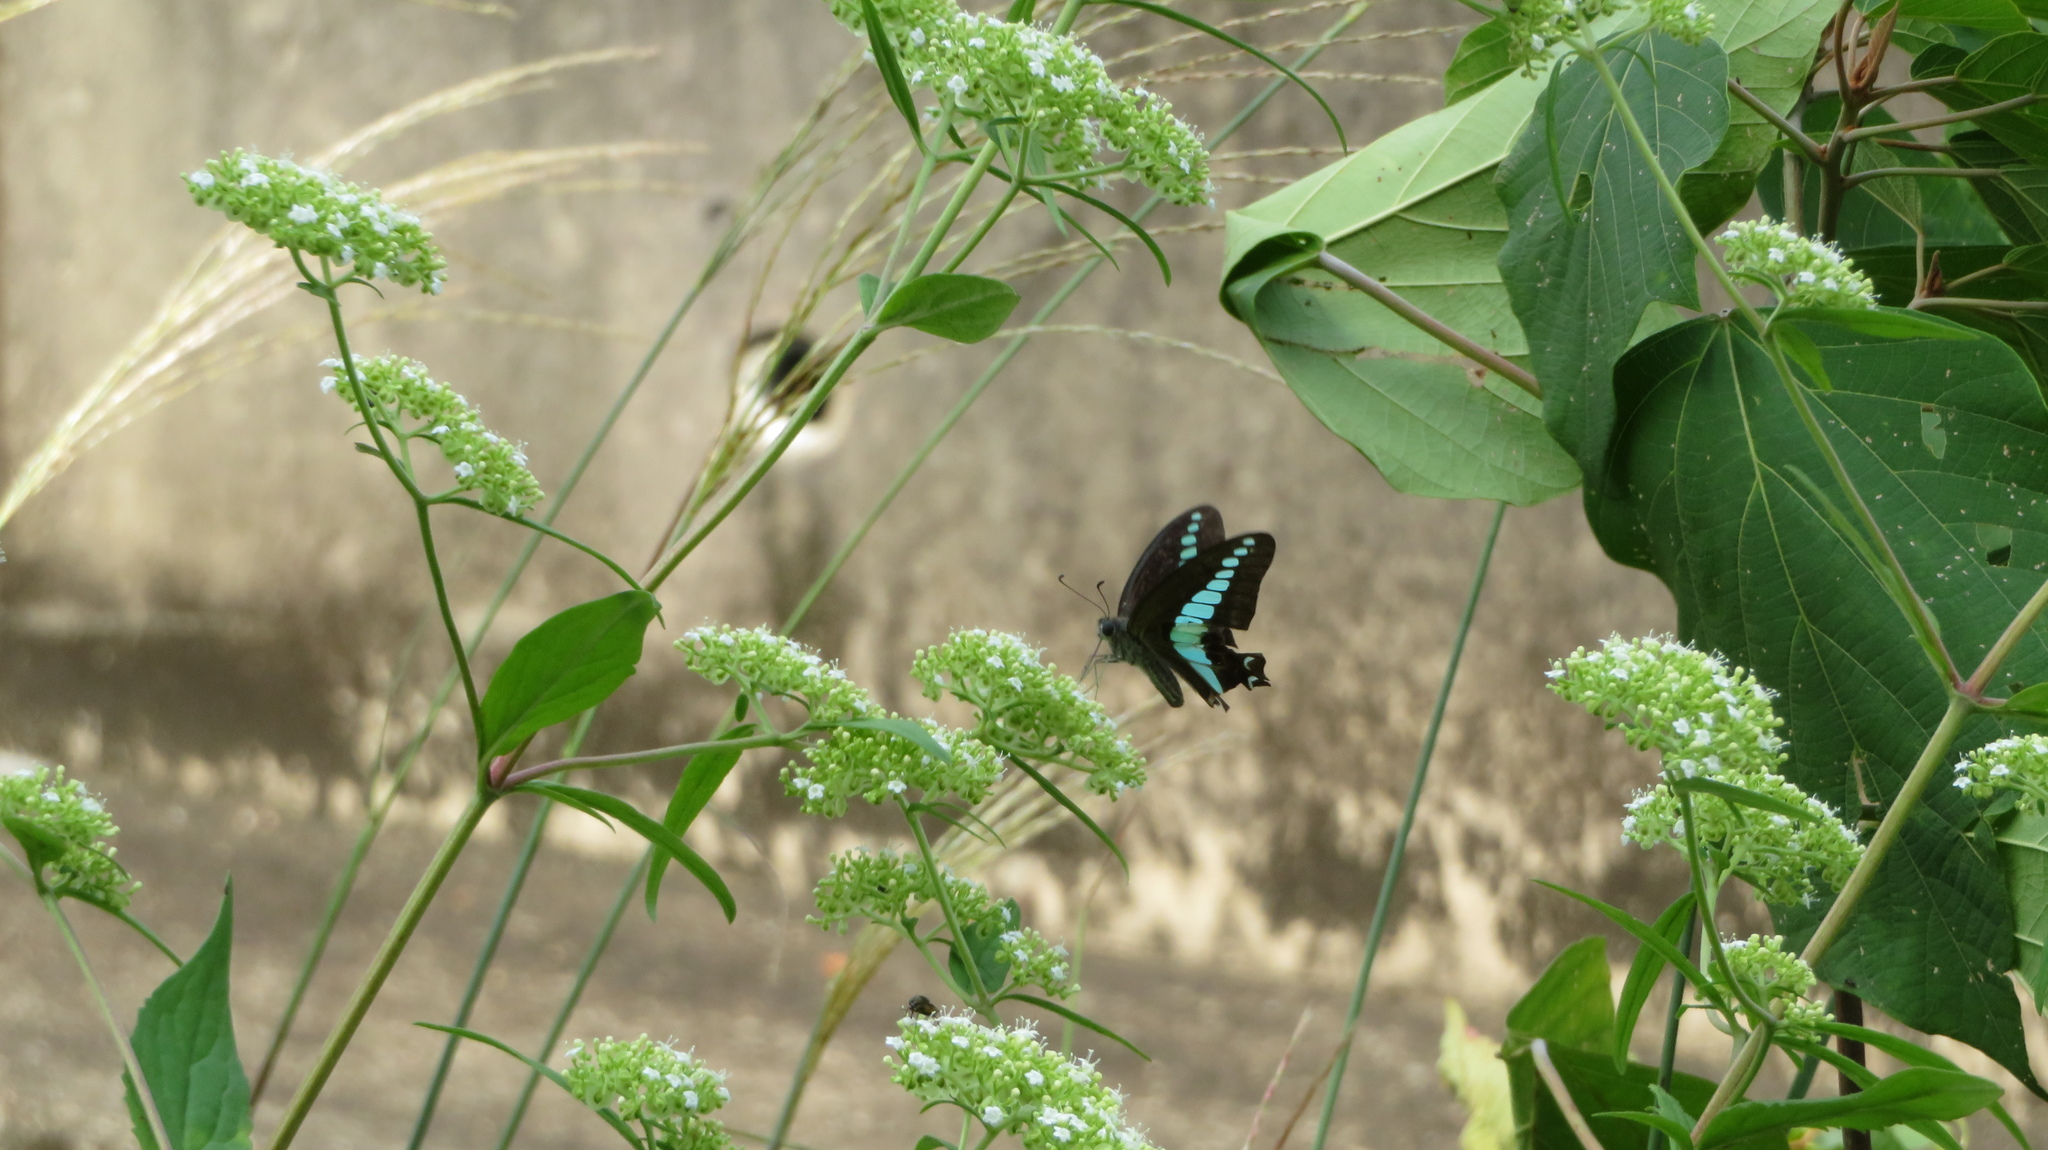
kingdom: Fungi
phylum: Ascomycota
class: Sordariomycetes
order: Microascales
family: Microascaceae
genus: Graphium
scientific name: Graphium sarpedon
